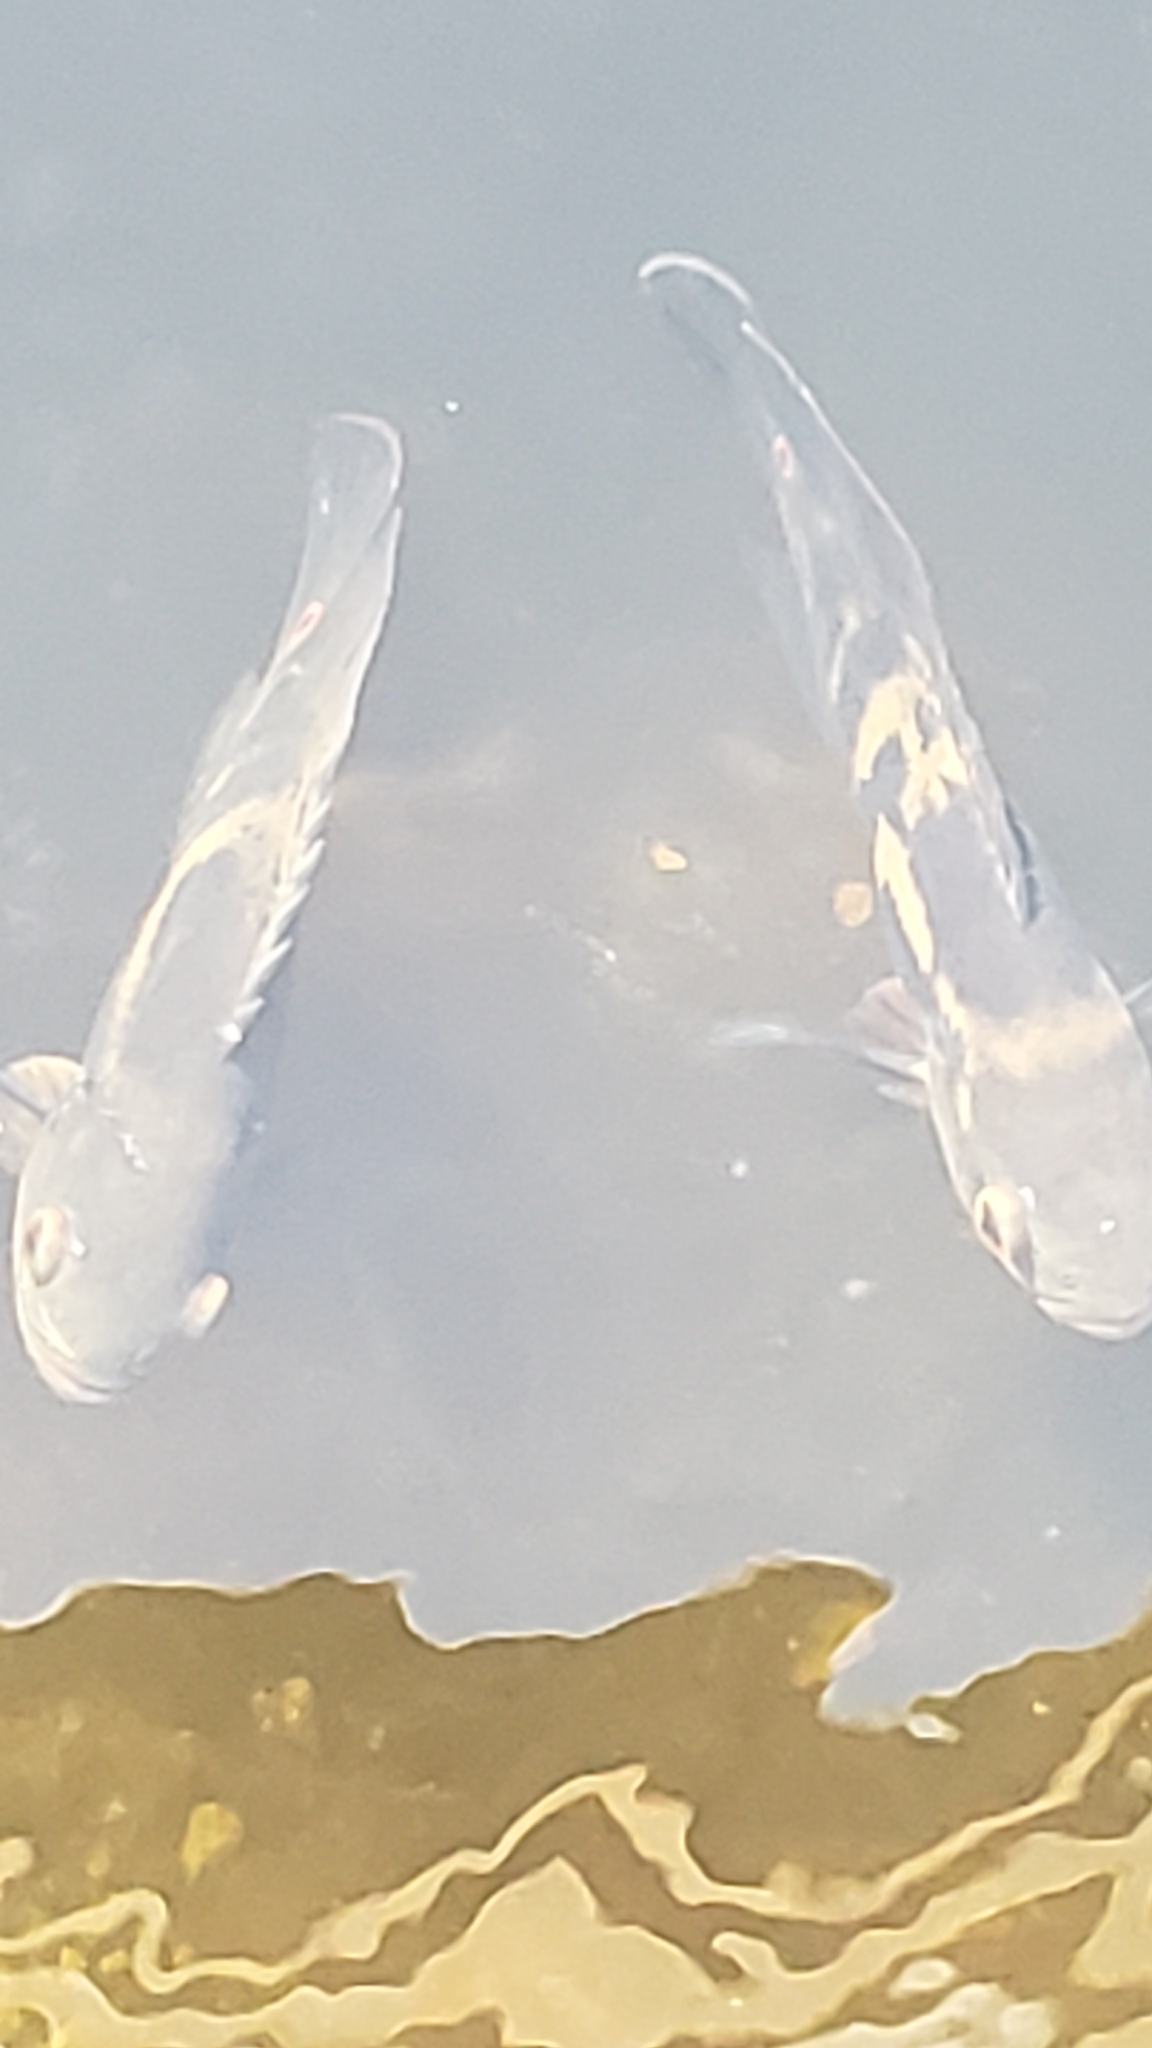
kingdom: Animalia
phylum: Chordata
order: Perciformes
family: Cichlidae
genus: Astronotus
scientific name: Astronotus ocellatus
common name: Oscar
